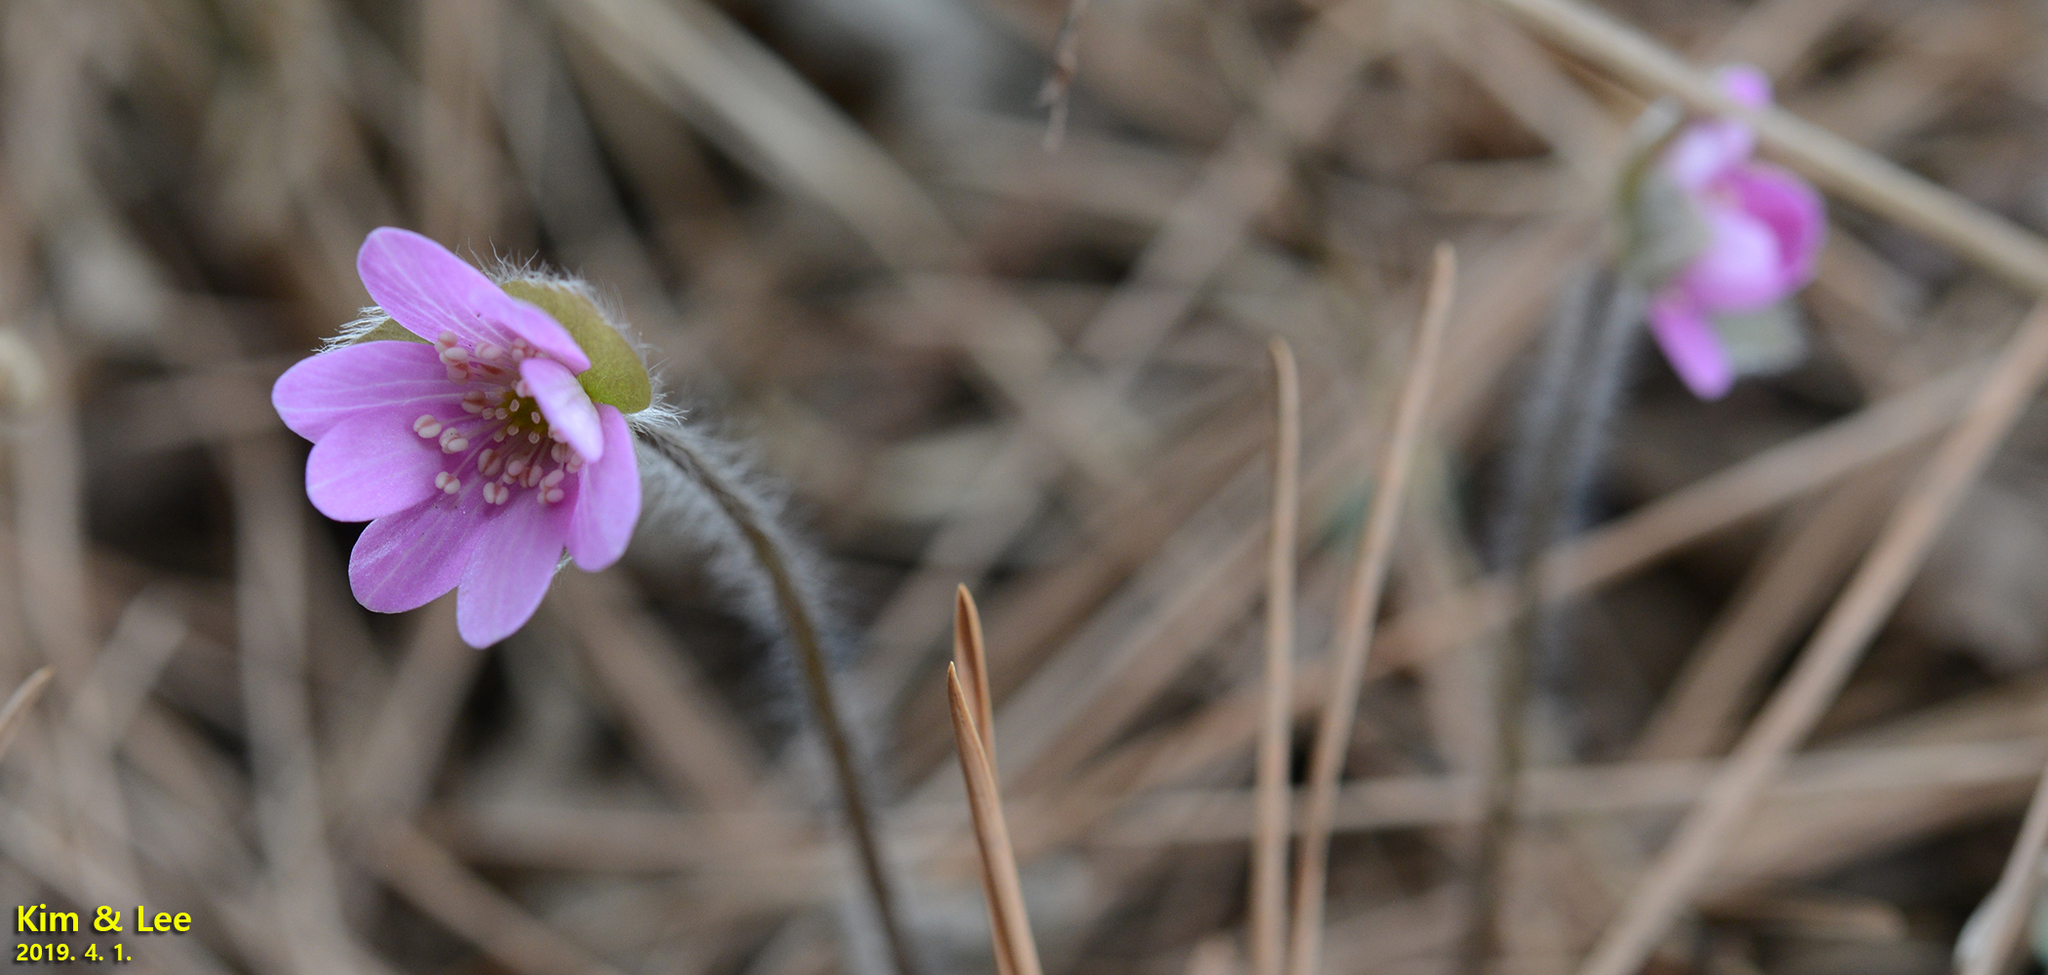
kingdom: Plantae
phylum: Tracheophyta
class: Magnoliopsida
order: Ranunculales
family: Ranunculaceae
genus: Hepatica
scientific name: Hepatica asiatica
